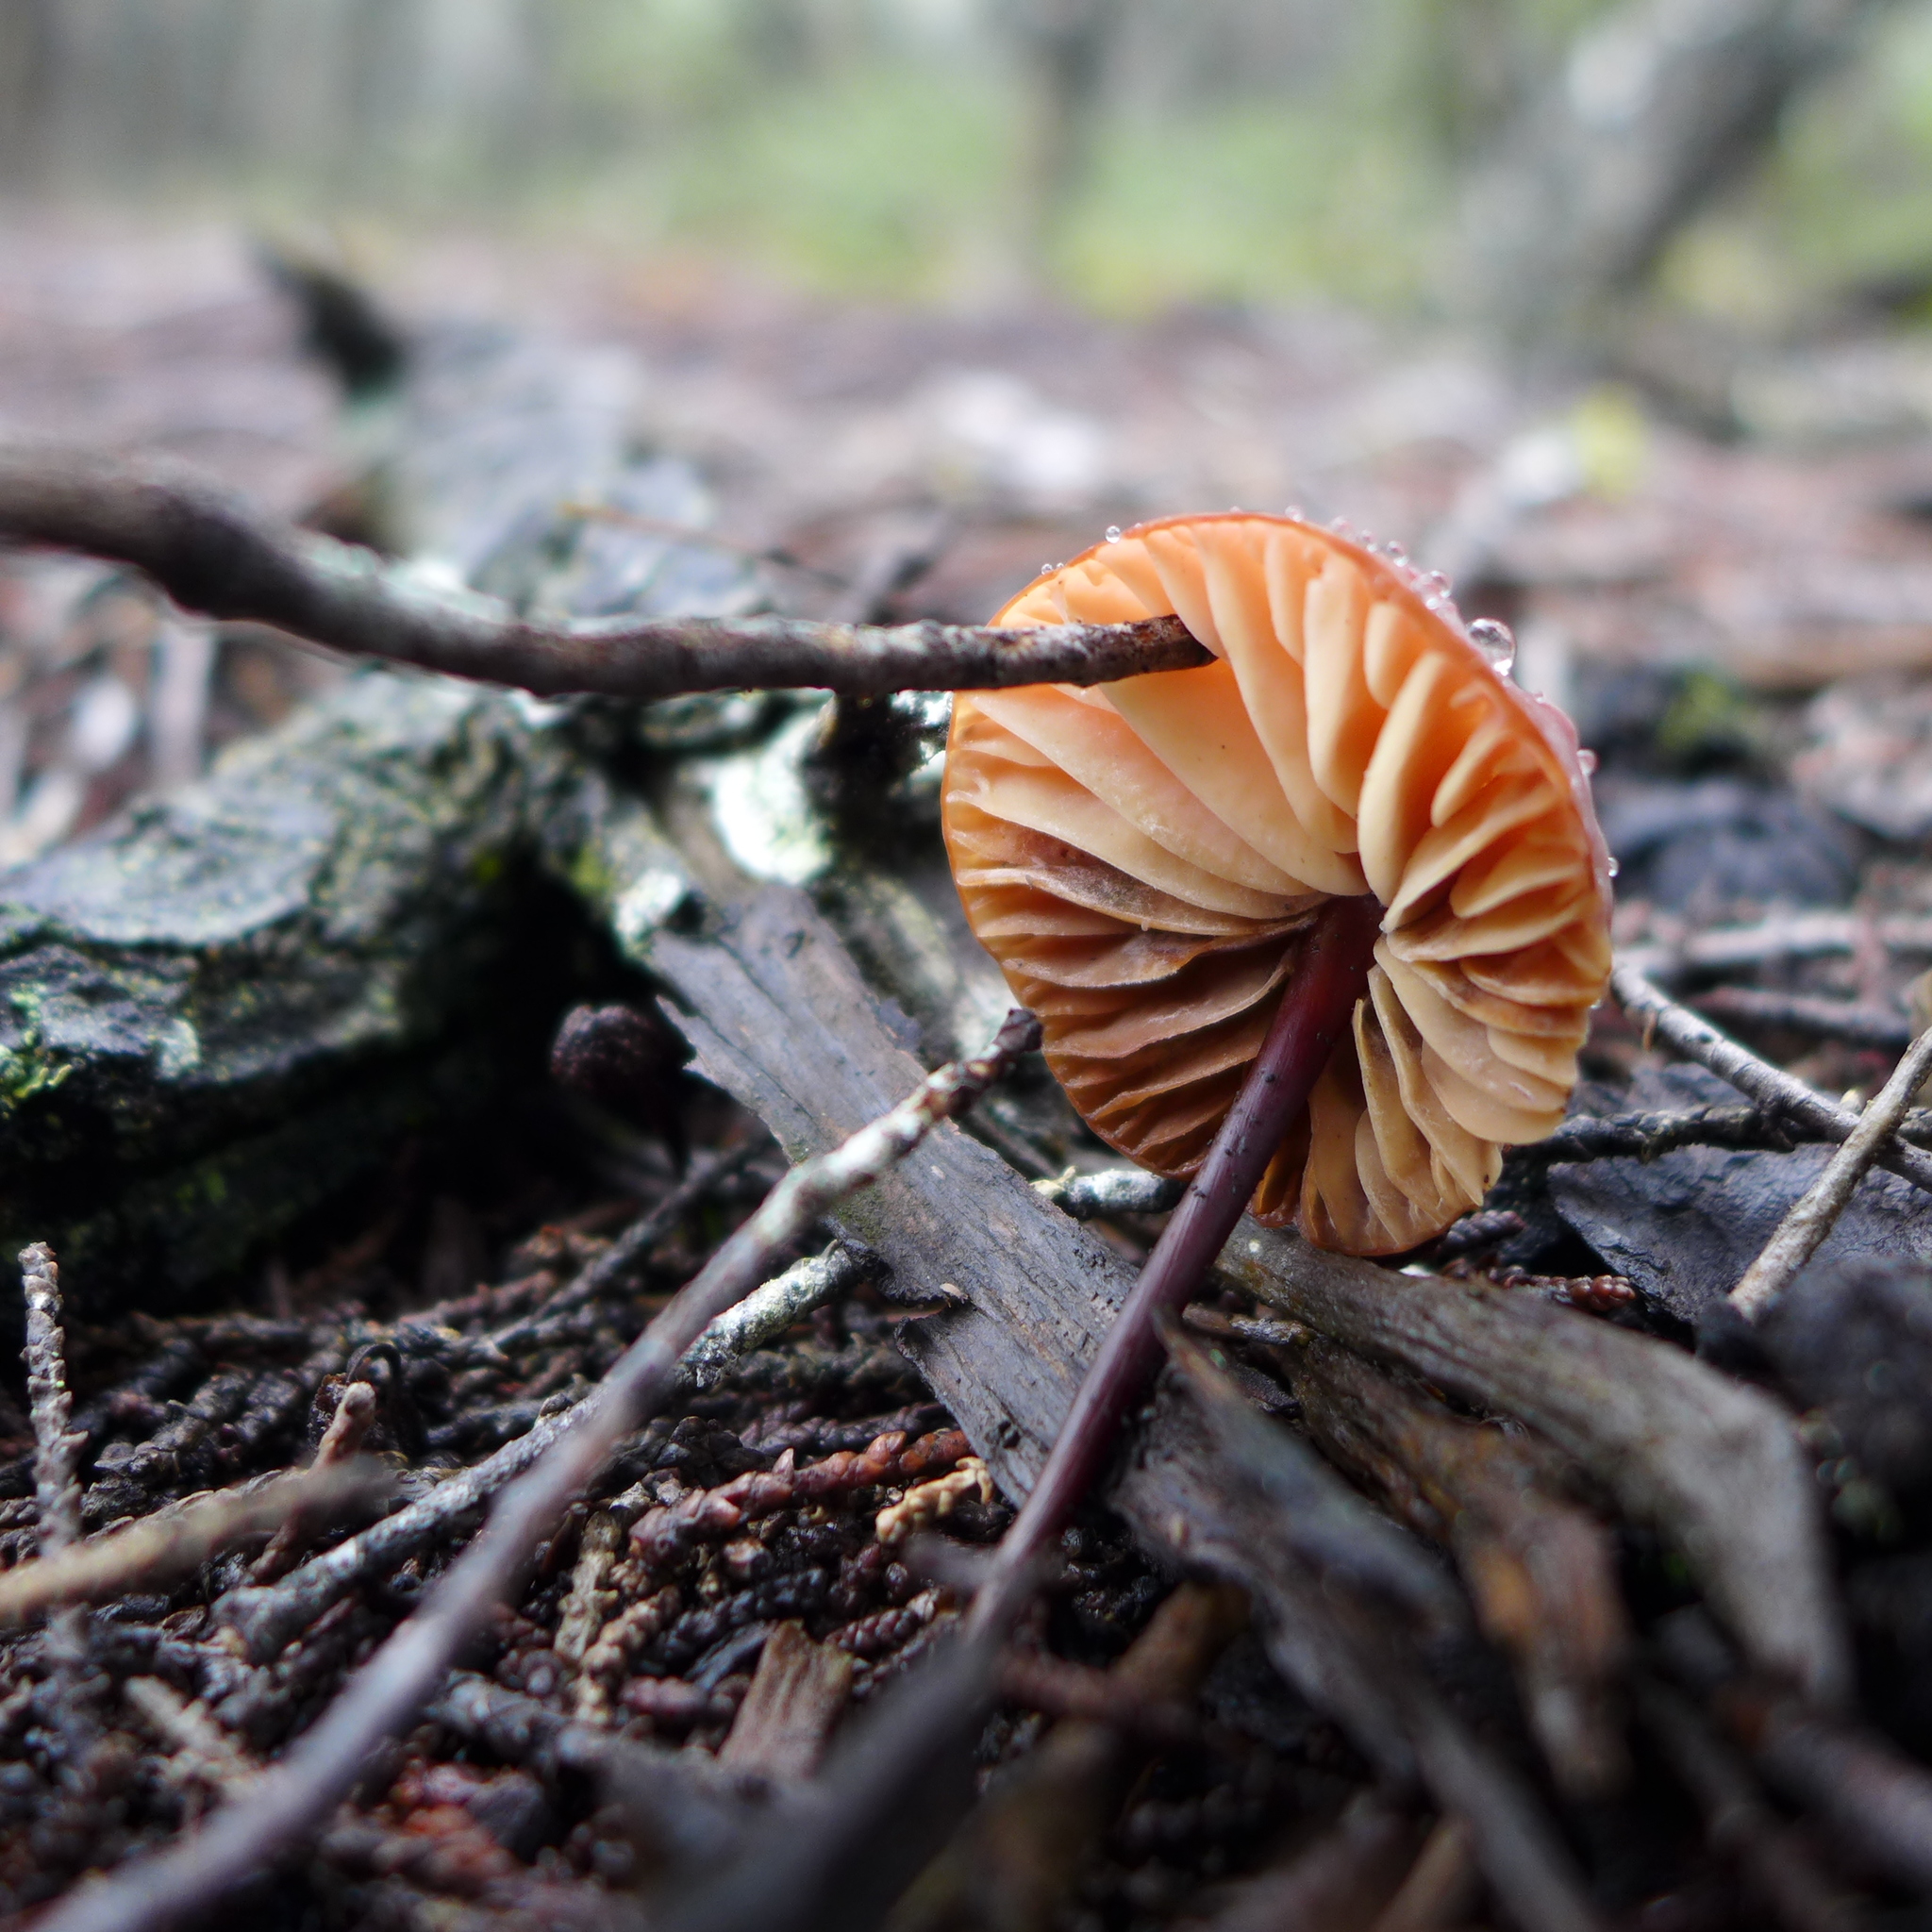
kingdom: Fungi
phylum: Basidiomycota
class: Agaricomycetes
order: Agaricales
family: Marasmiaceae
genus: Marasmius
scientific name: Marasmius plicatulus
